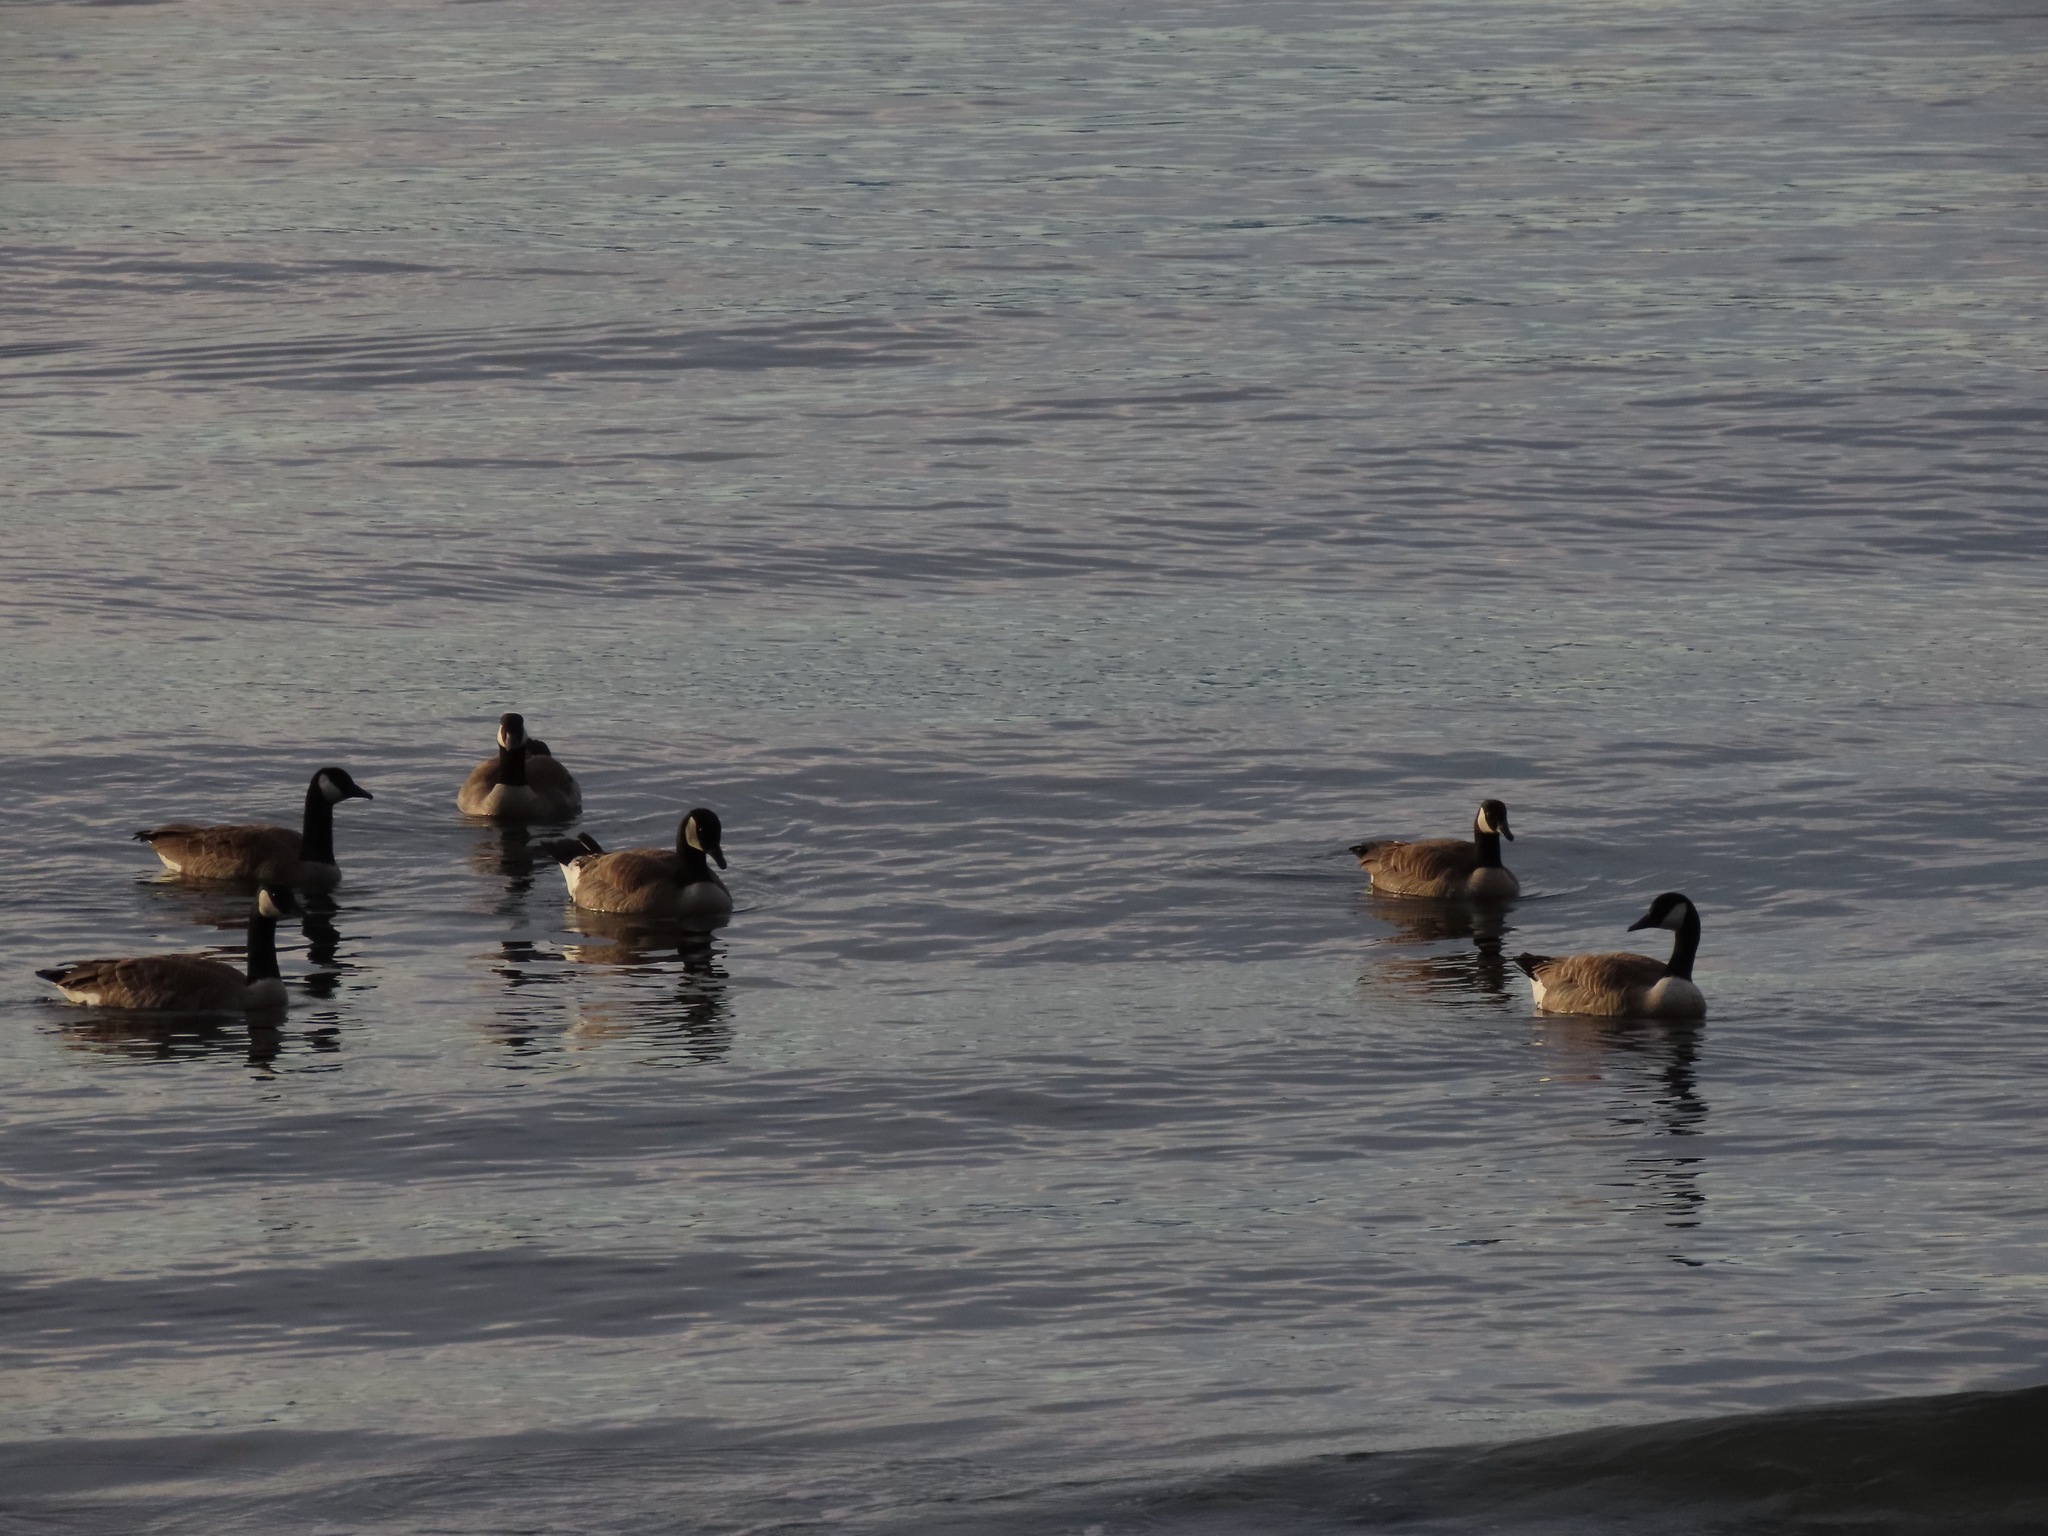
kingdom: Animalia
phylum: Chordata
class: Aves
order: Anseriformes
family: Anatidae
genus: Branta
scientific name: Branta canadensis
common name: Canada goose
